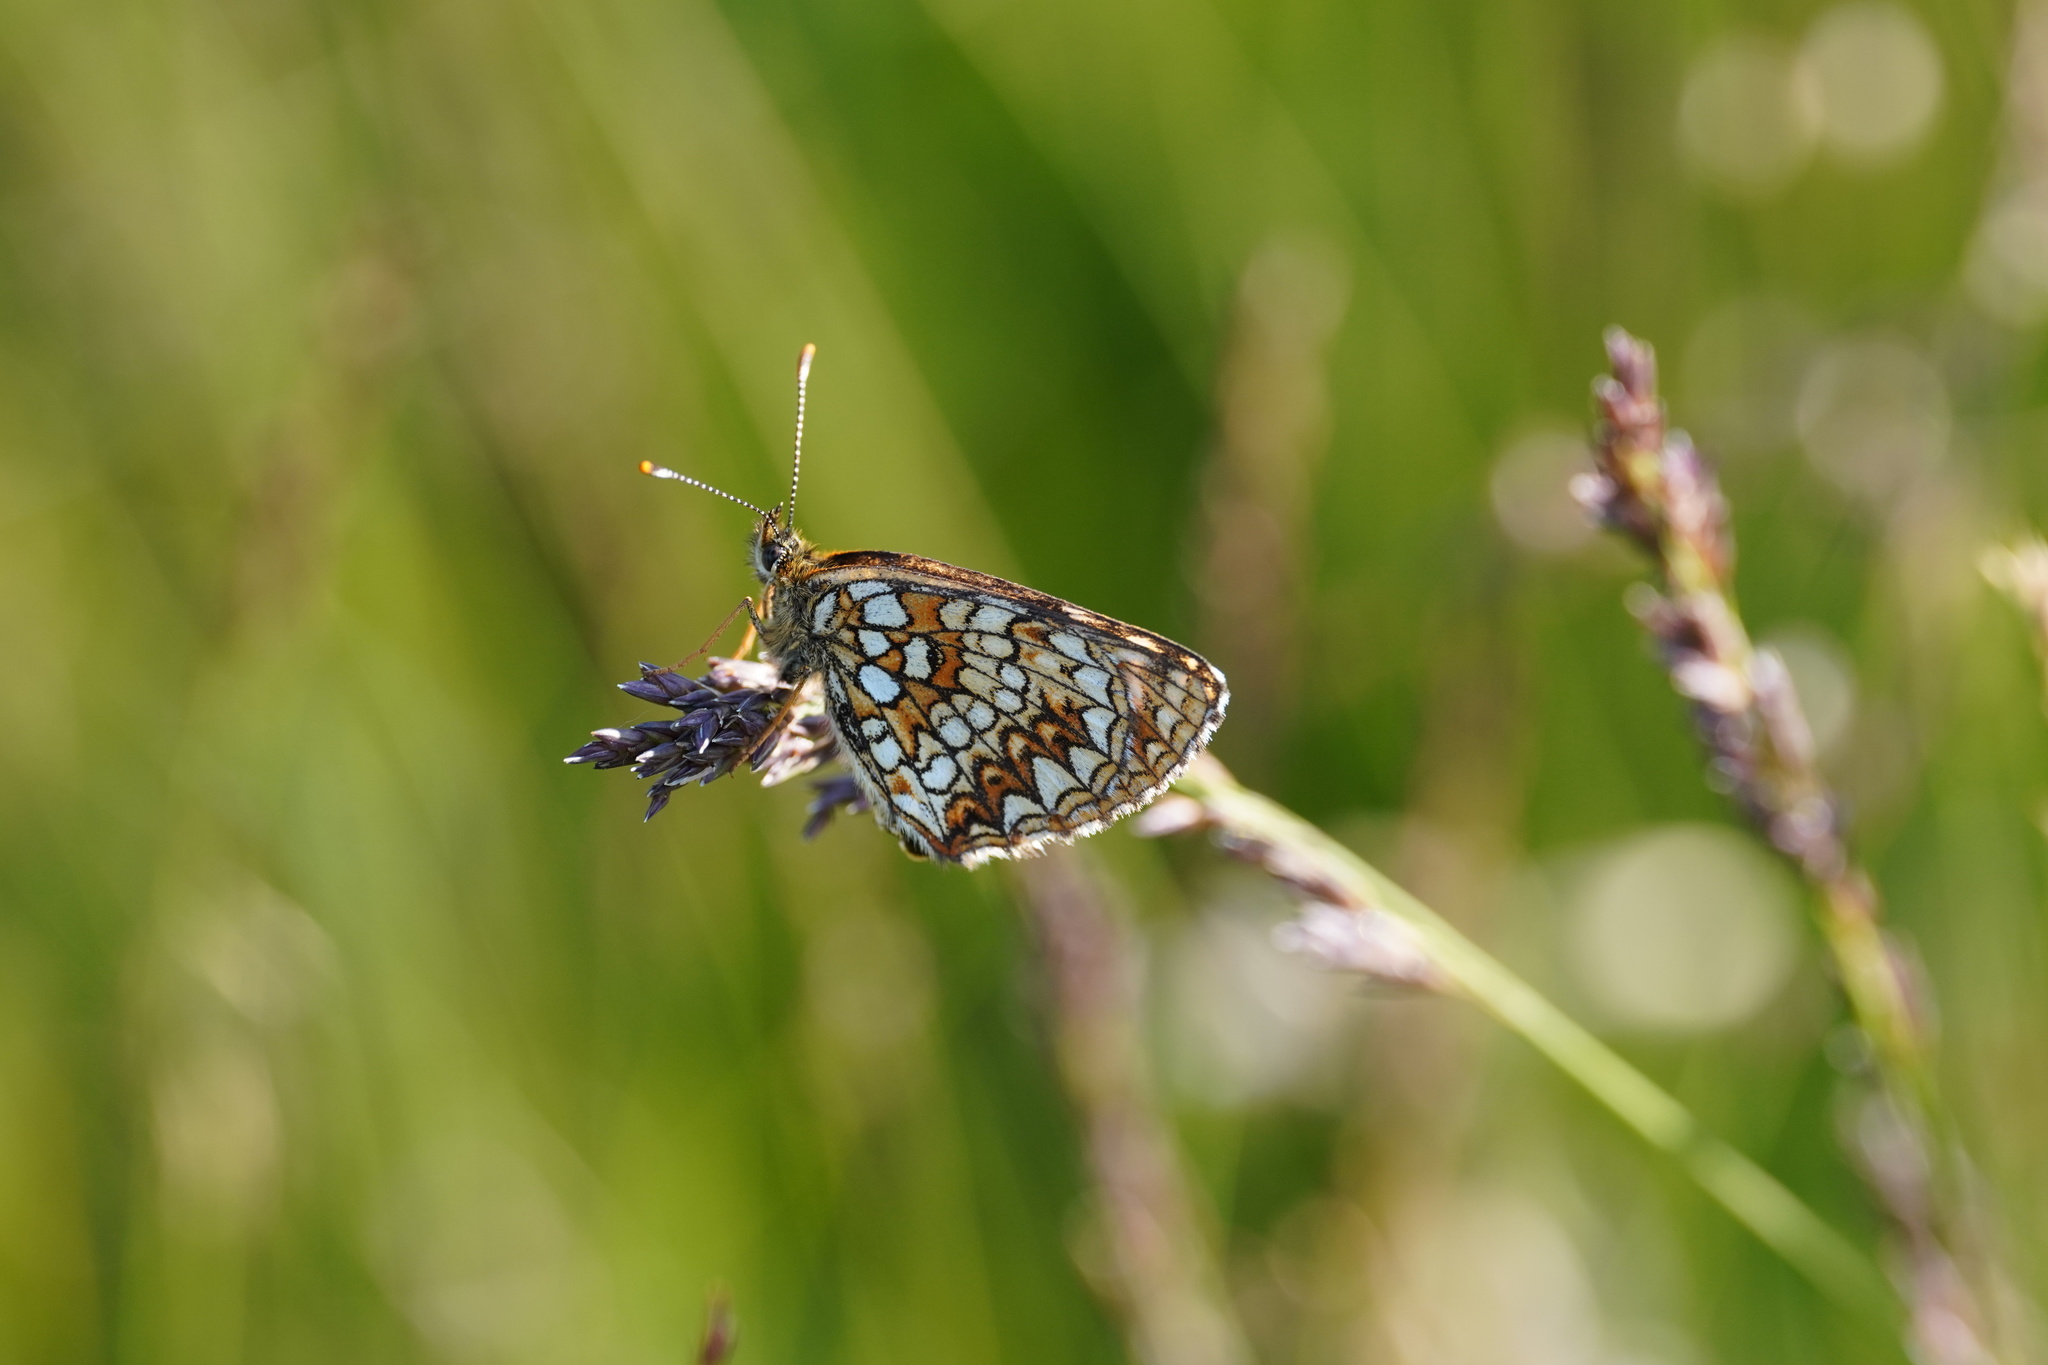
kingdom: Animalia
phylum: Arthropoda
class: Insecta
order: Lepidoptera
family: Nymphalidae
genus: Melitaea
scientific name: Melitaea diamina
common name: False heath fritillary
